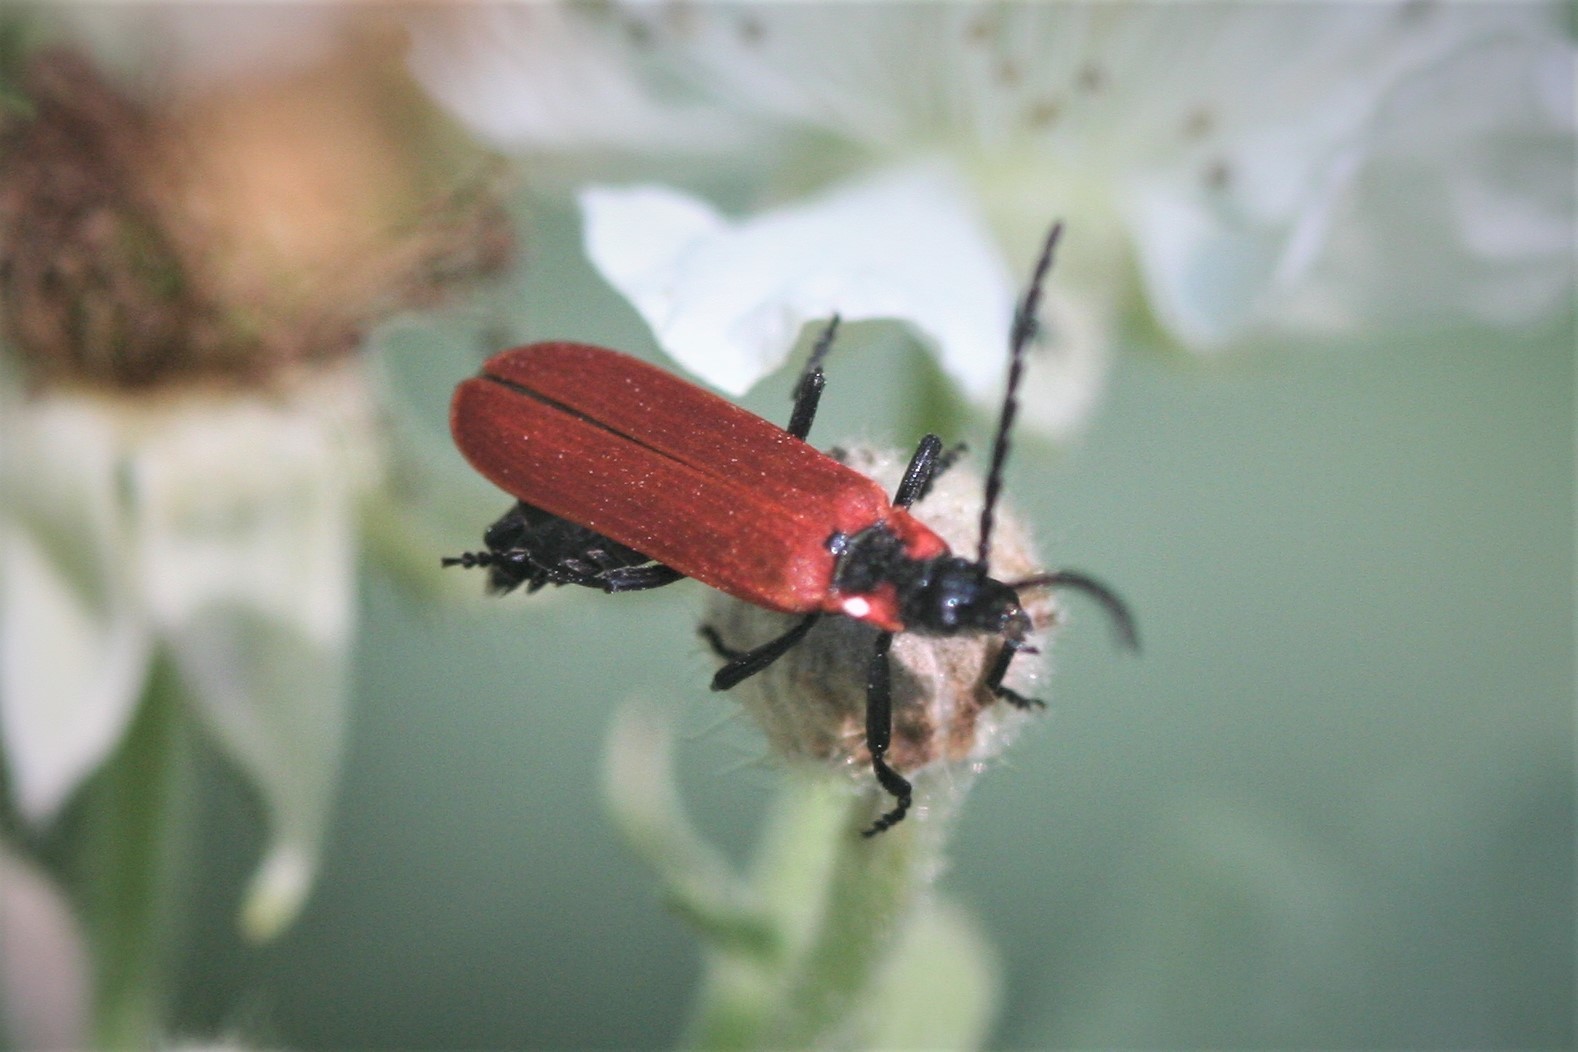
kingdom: Animalia
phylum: Arthropoda
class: Insecta
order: Coleoptera
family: Lycidae
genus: Lygistopterus
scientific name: Lygistopterus sanguineus
